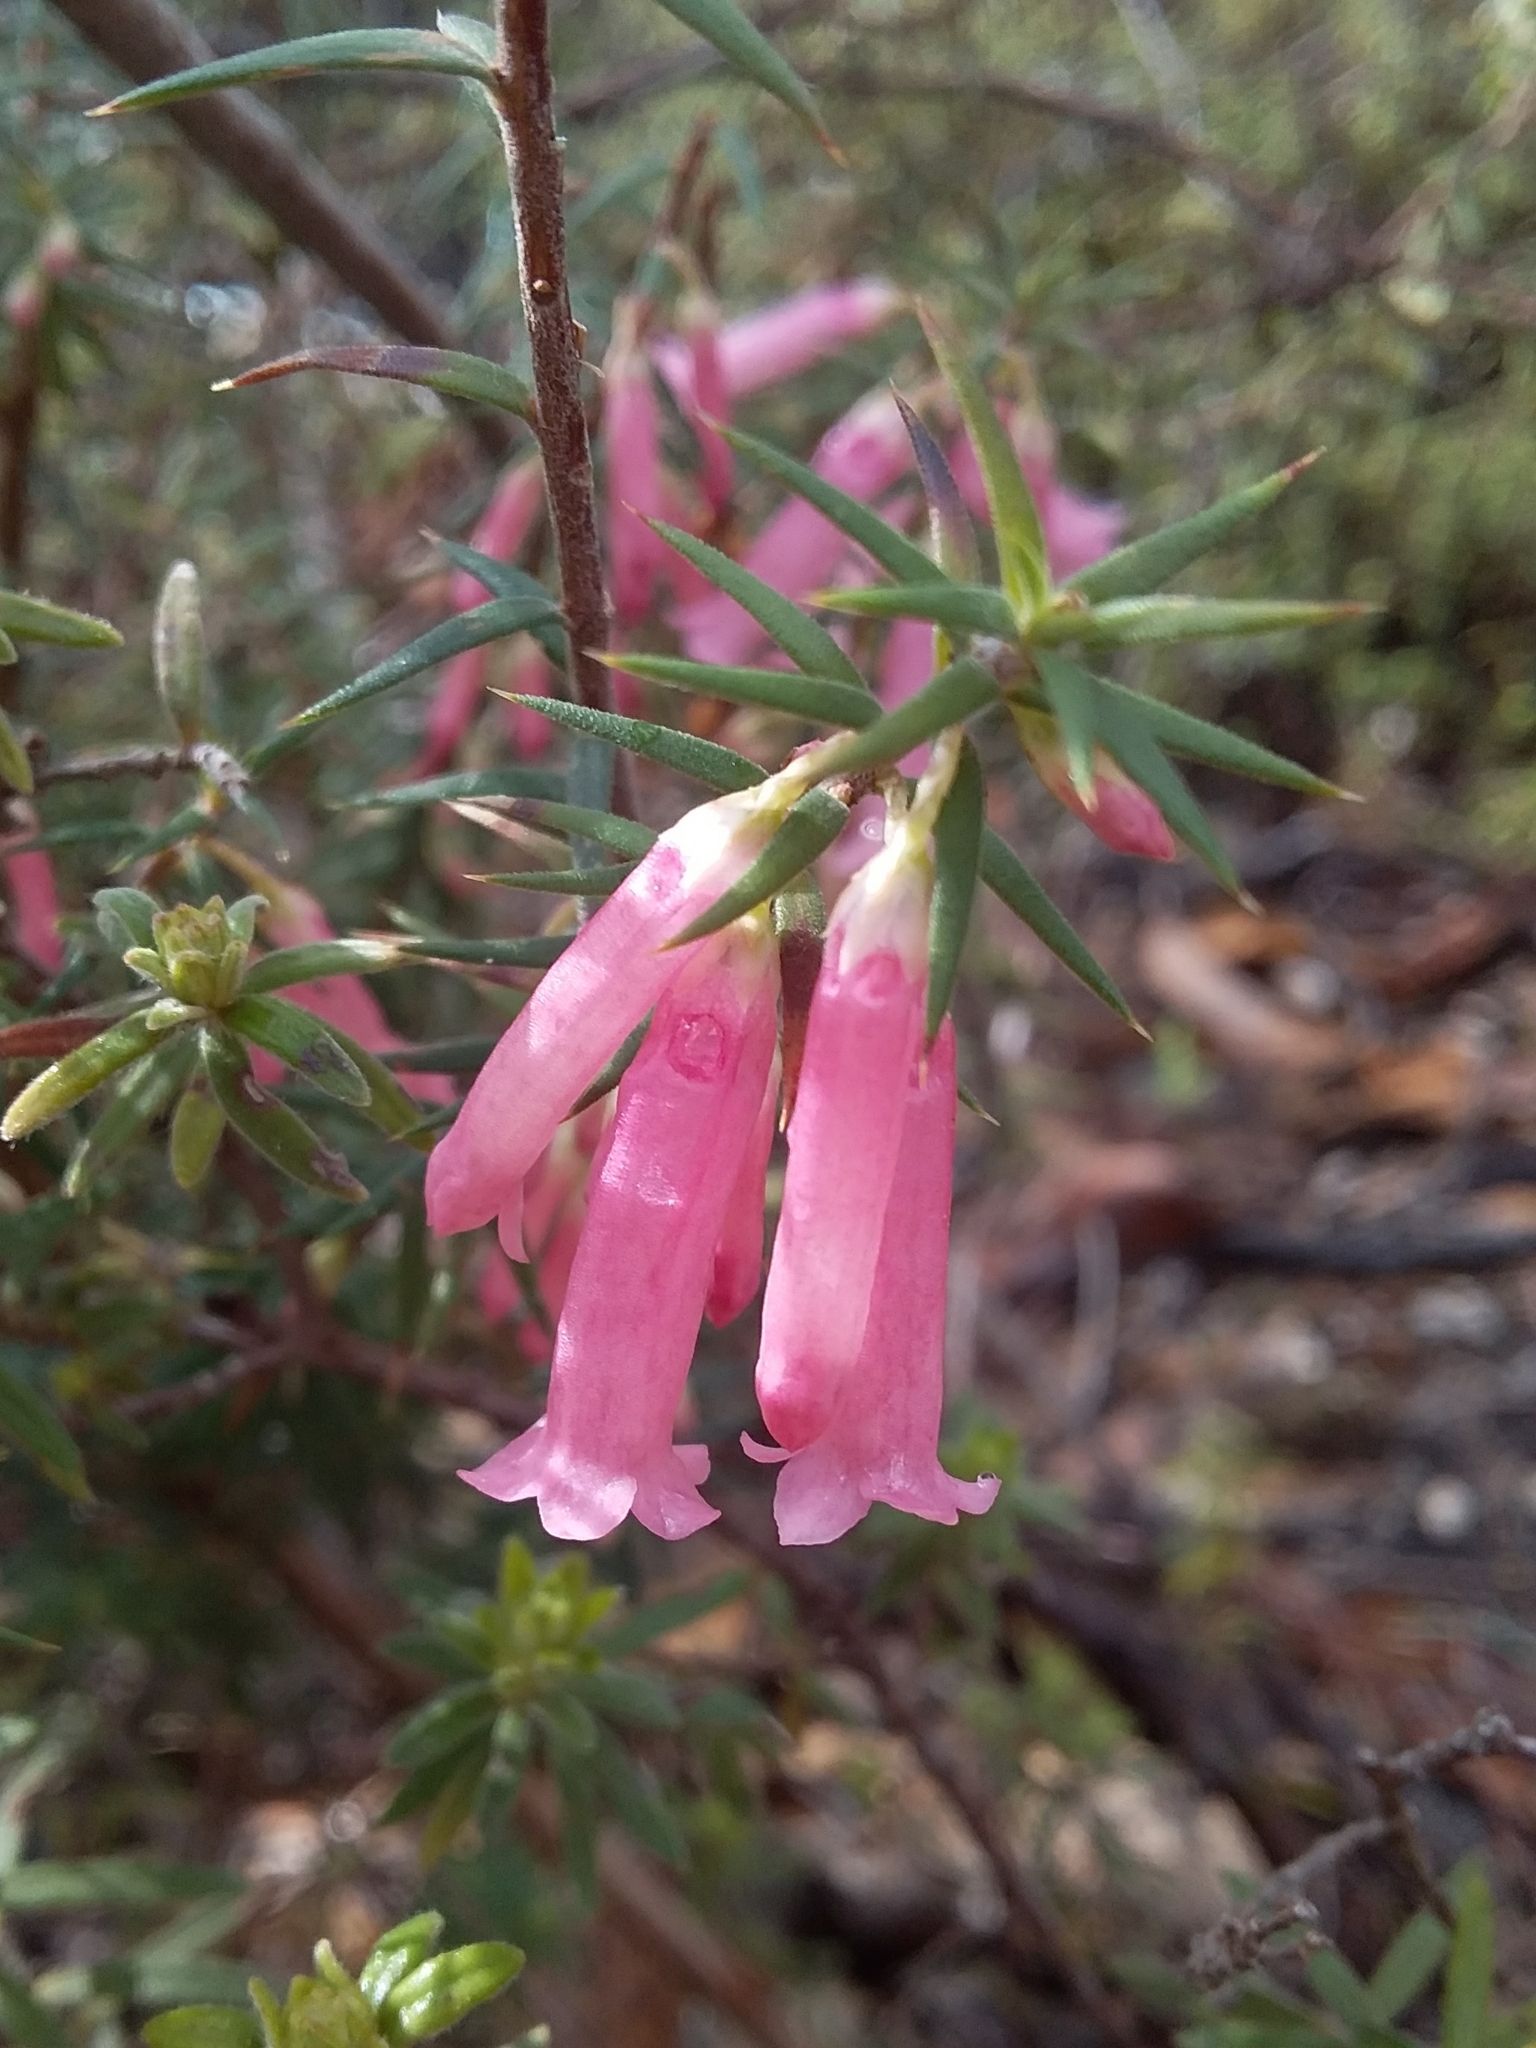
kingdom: Plantae
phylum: Tracheophyta
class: Magnoliopsida
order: Ericales
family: Ericaceae
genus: Epacris
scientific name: Epacris impressa
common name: Common-heath
